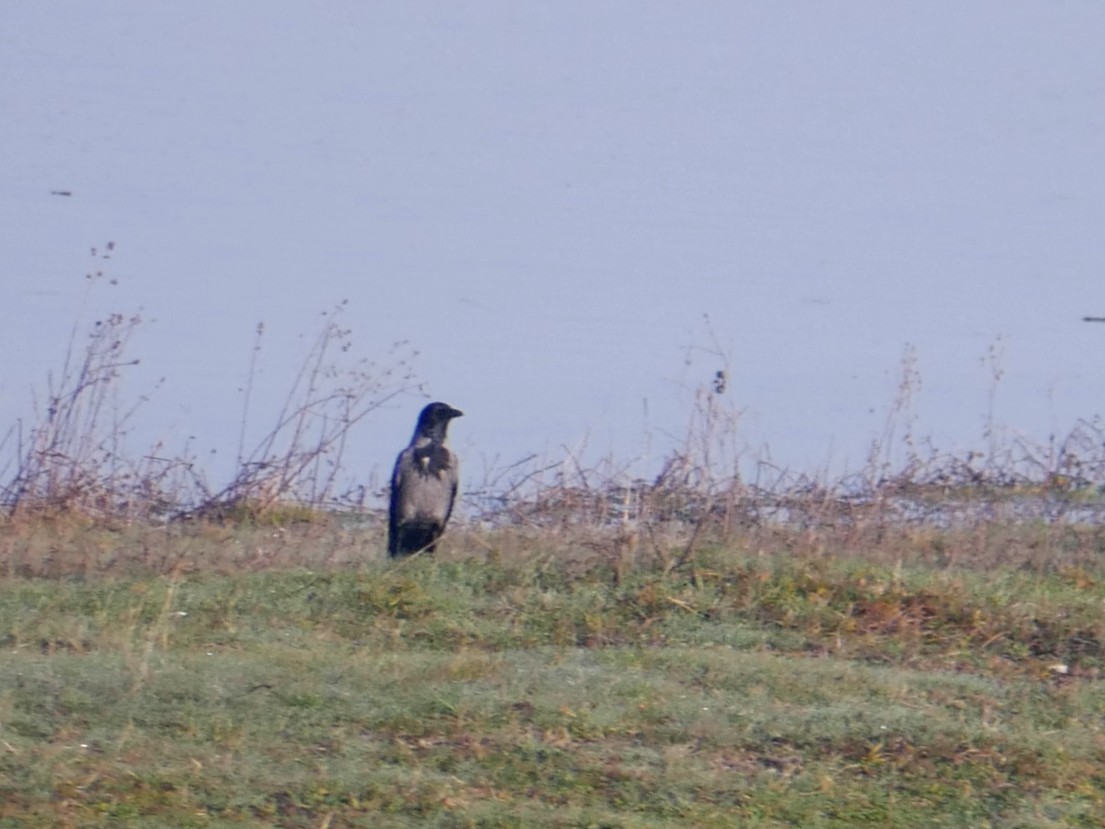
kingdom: Animalia
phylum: Chordata
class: Aves
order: Passeriformes
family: Corvidae
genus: Corvus
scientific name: Corvus cornix
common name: Hooded crow
